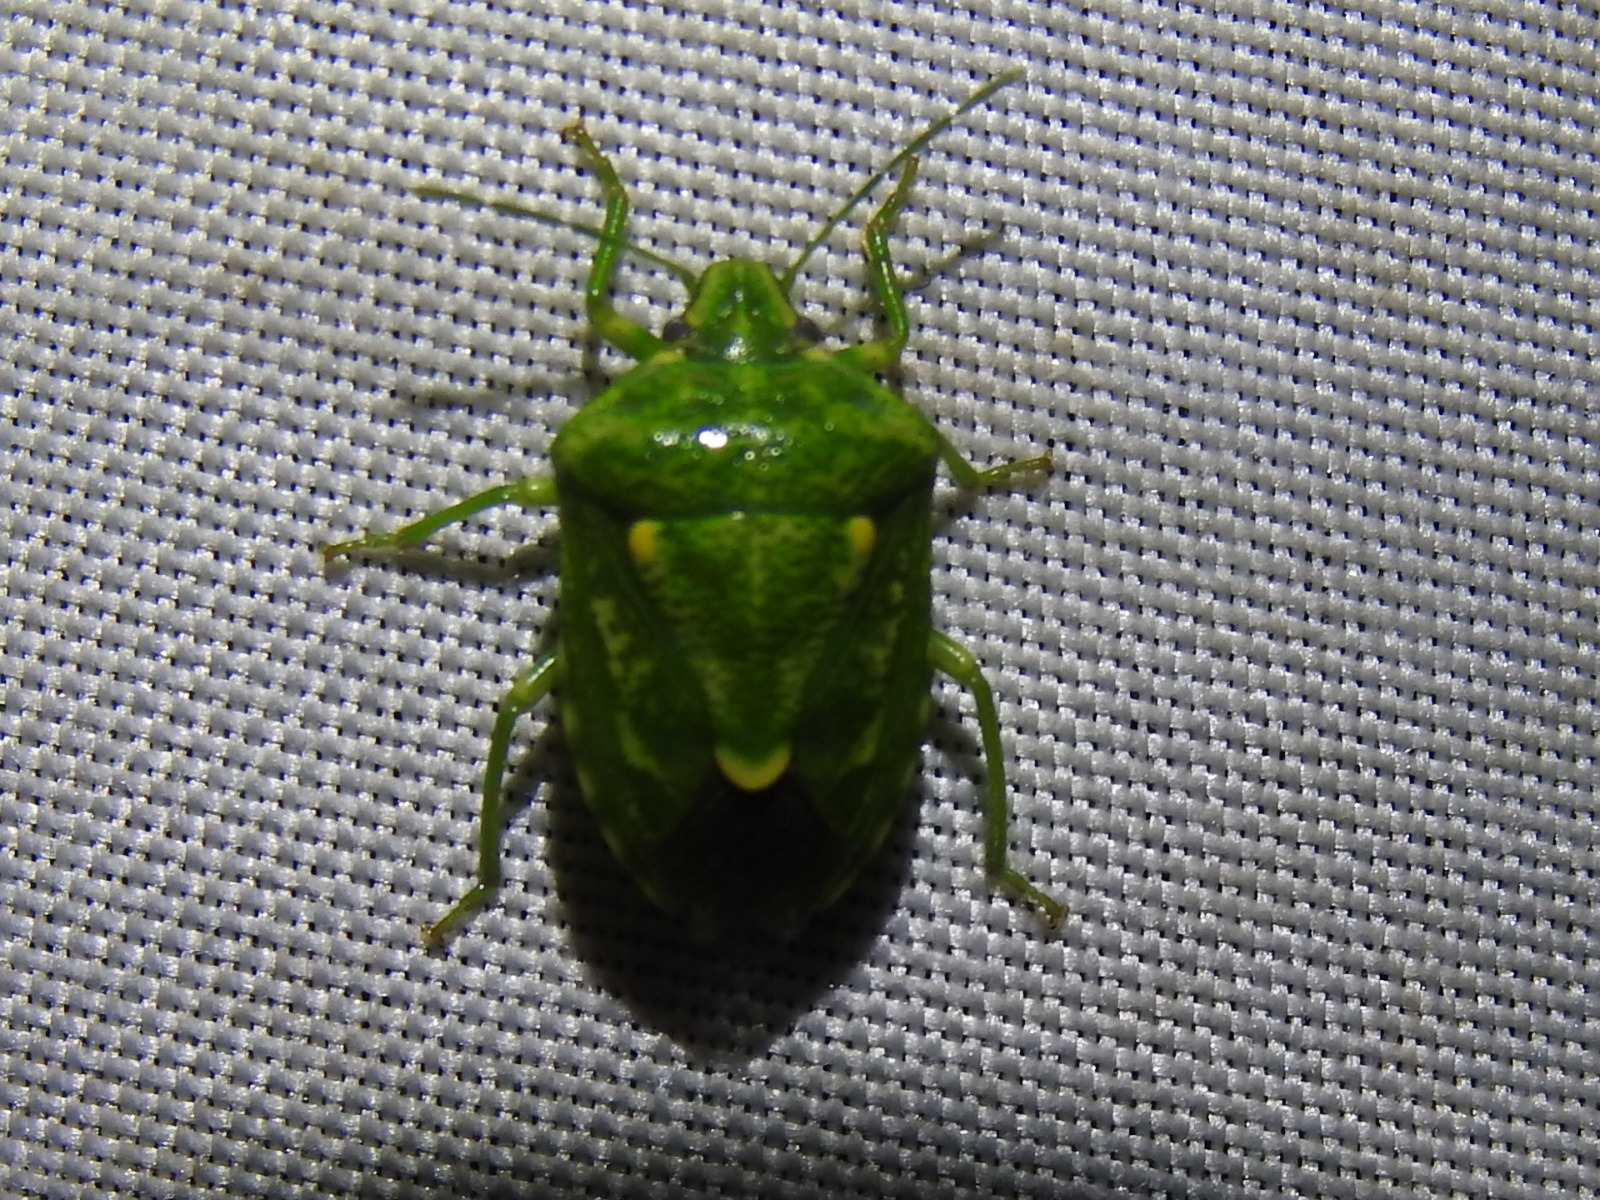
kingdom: Animalia
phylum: Arthropoda
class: Insecta
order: Hemiptera
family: Pentatomidae
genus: Banasa
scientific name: Banasa euchlora
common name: Cedar berry bug
